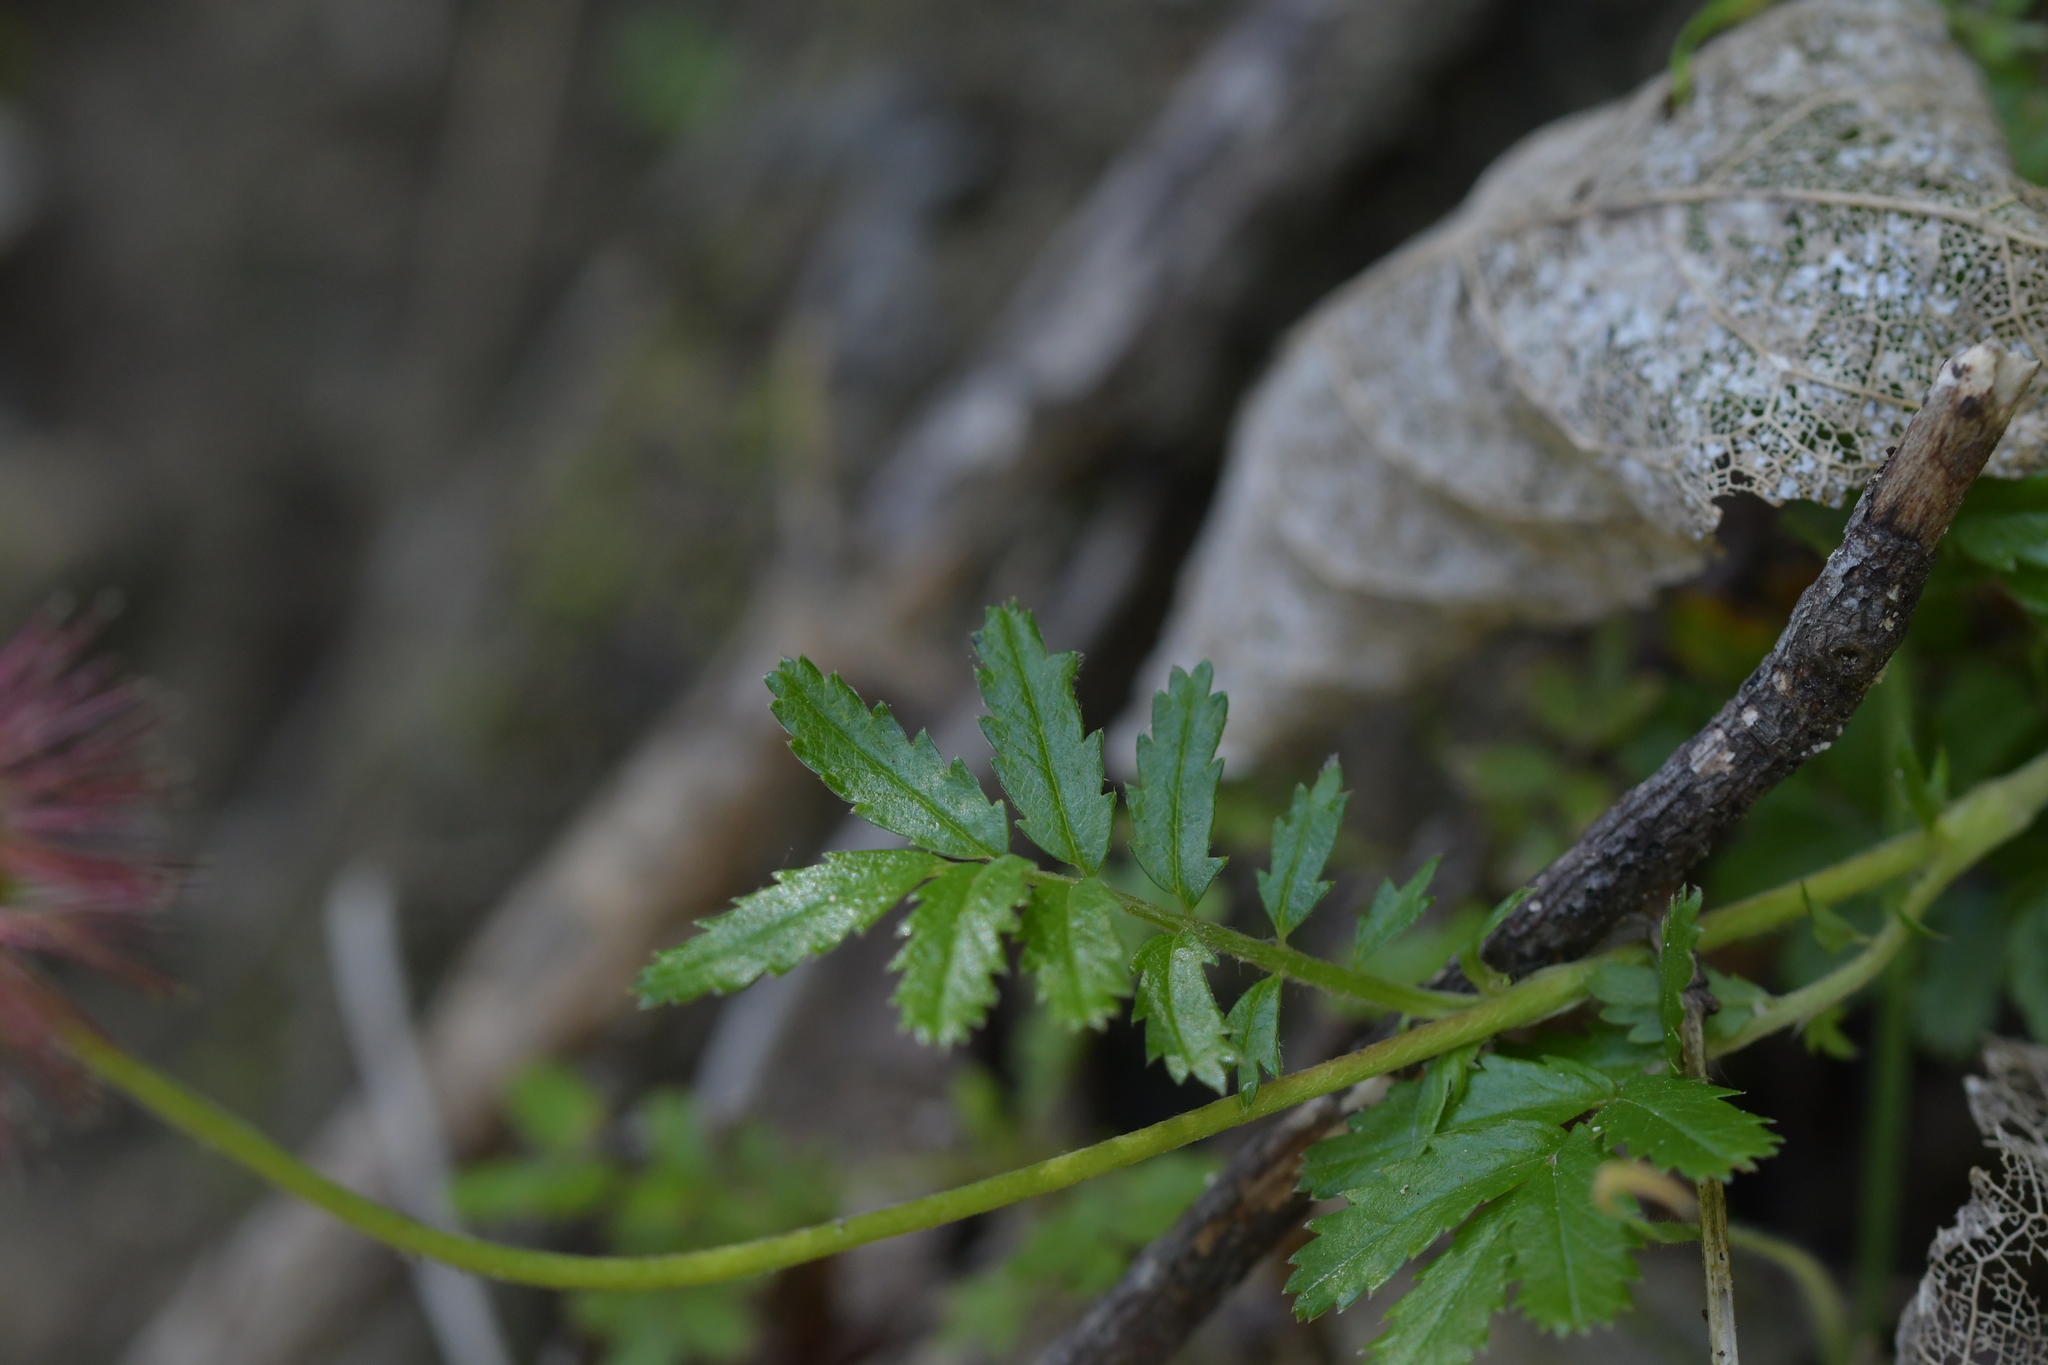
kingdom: Plantae
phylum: Tracheophyta
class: Magnoliopsida
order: Rosales
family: Rosaceae
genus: Acaena
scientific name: Acaena novae-zelandiae
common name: Pirri-pirri-bur
